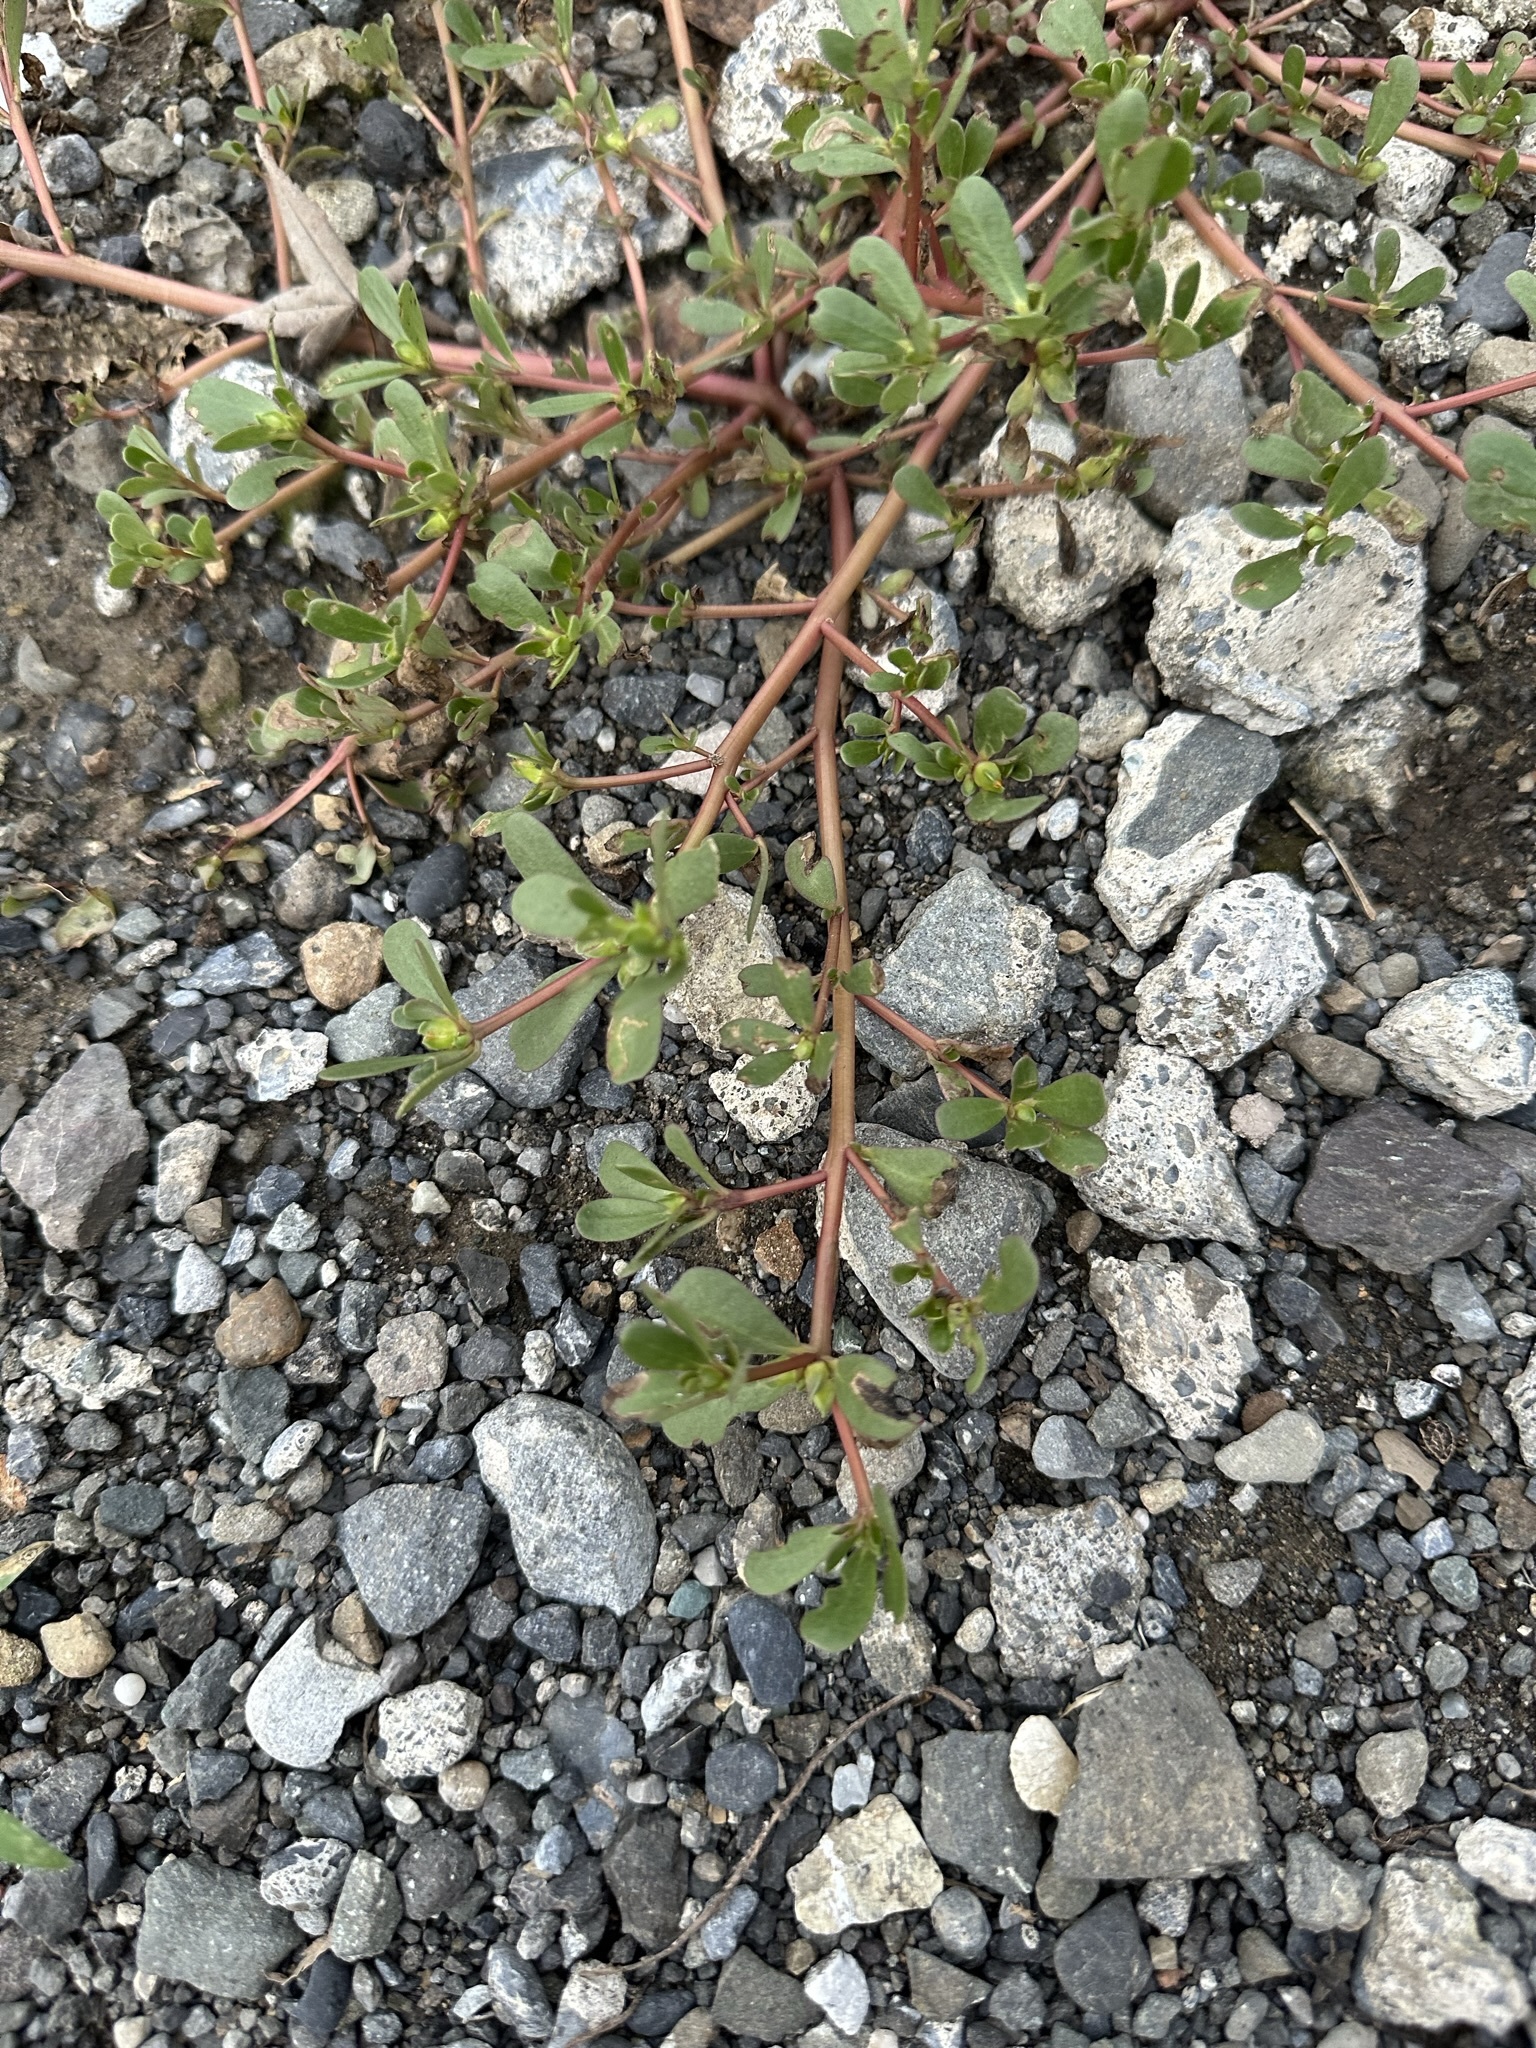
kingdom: Plantae
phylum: Tracheophyta
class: Magnoliopsida
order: Caryophyllales
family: Portulacaceae
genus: Portulaca
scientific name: Portulaca oleracea
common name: Common purslane
